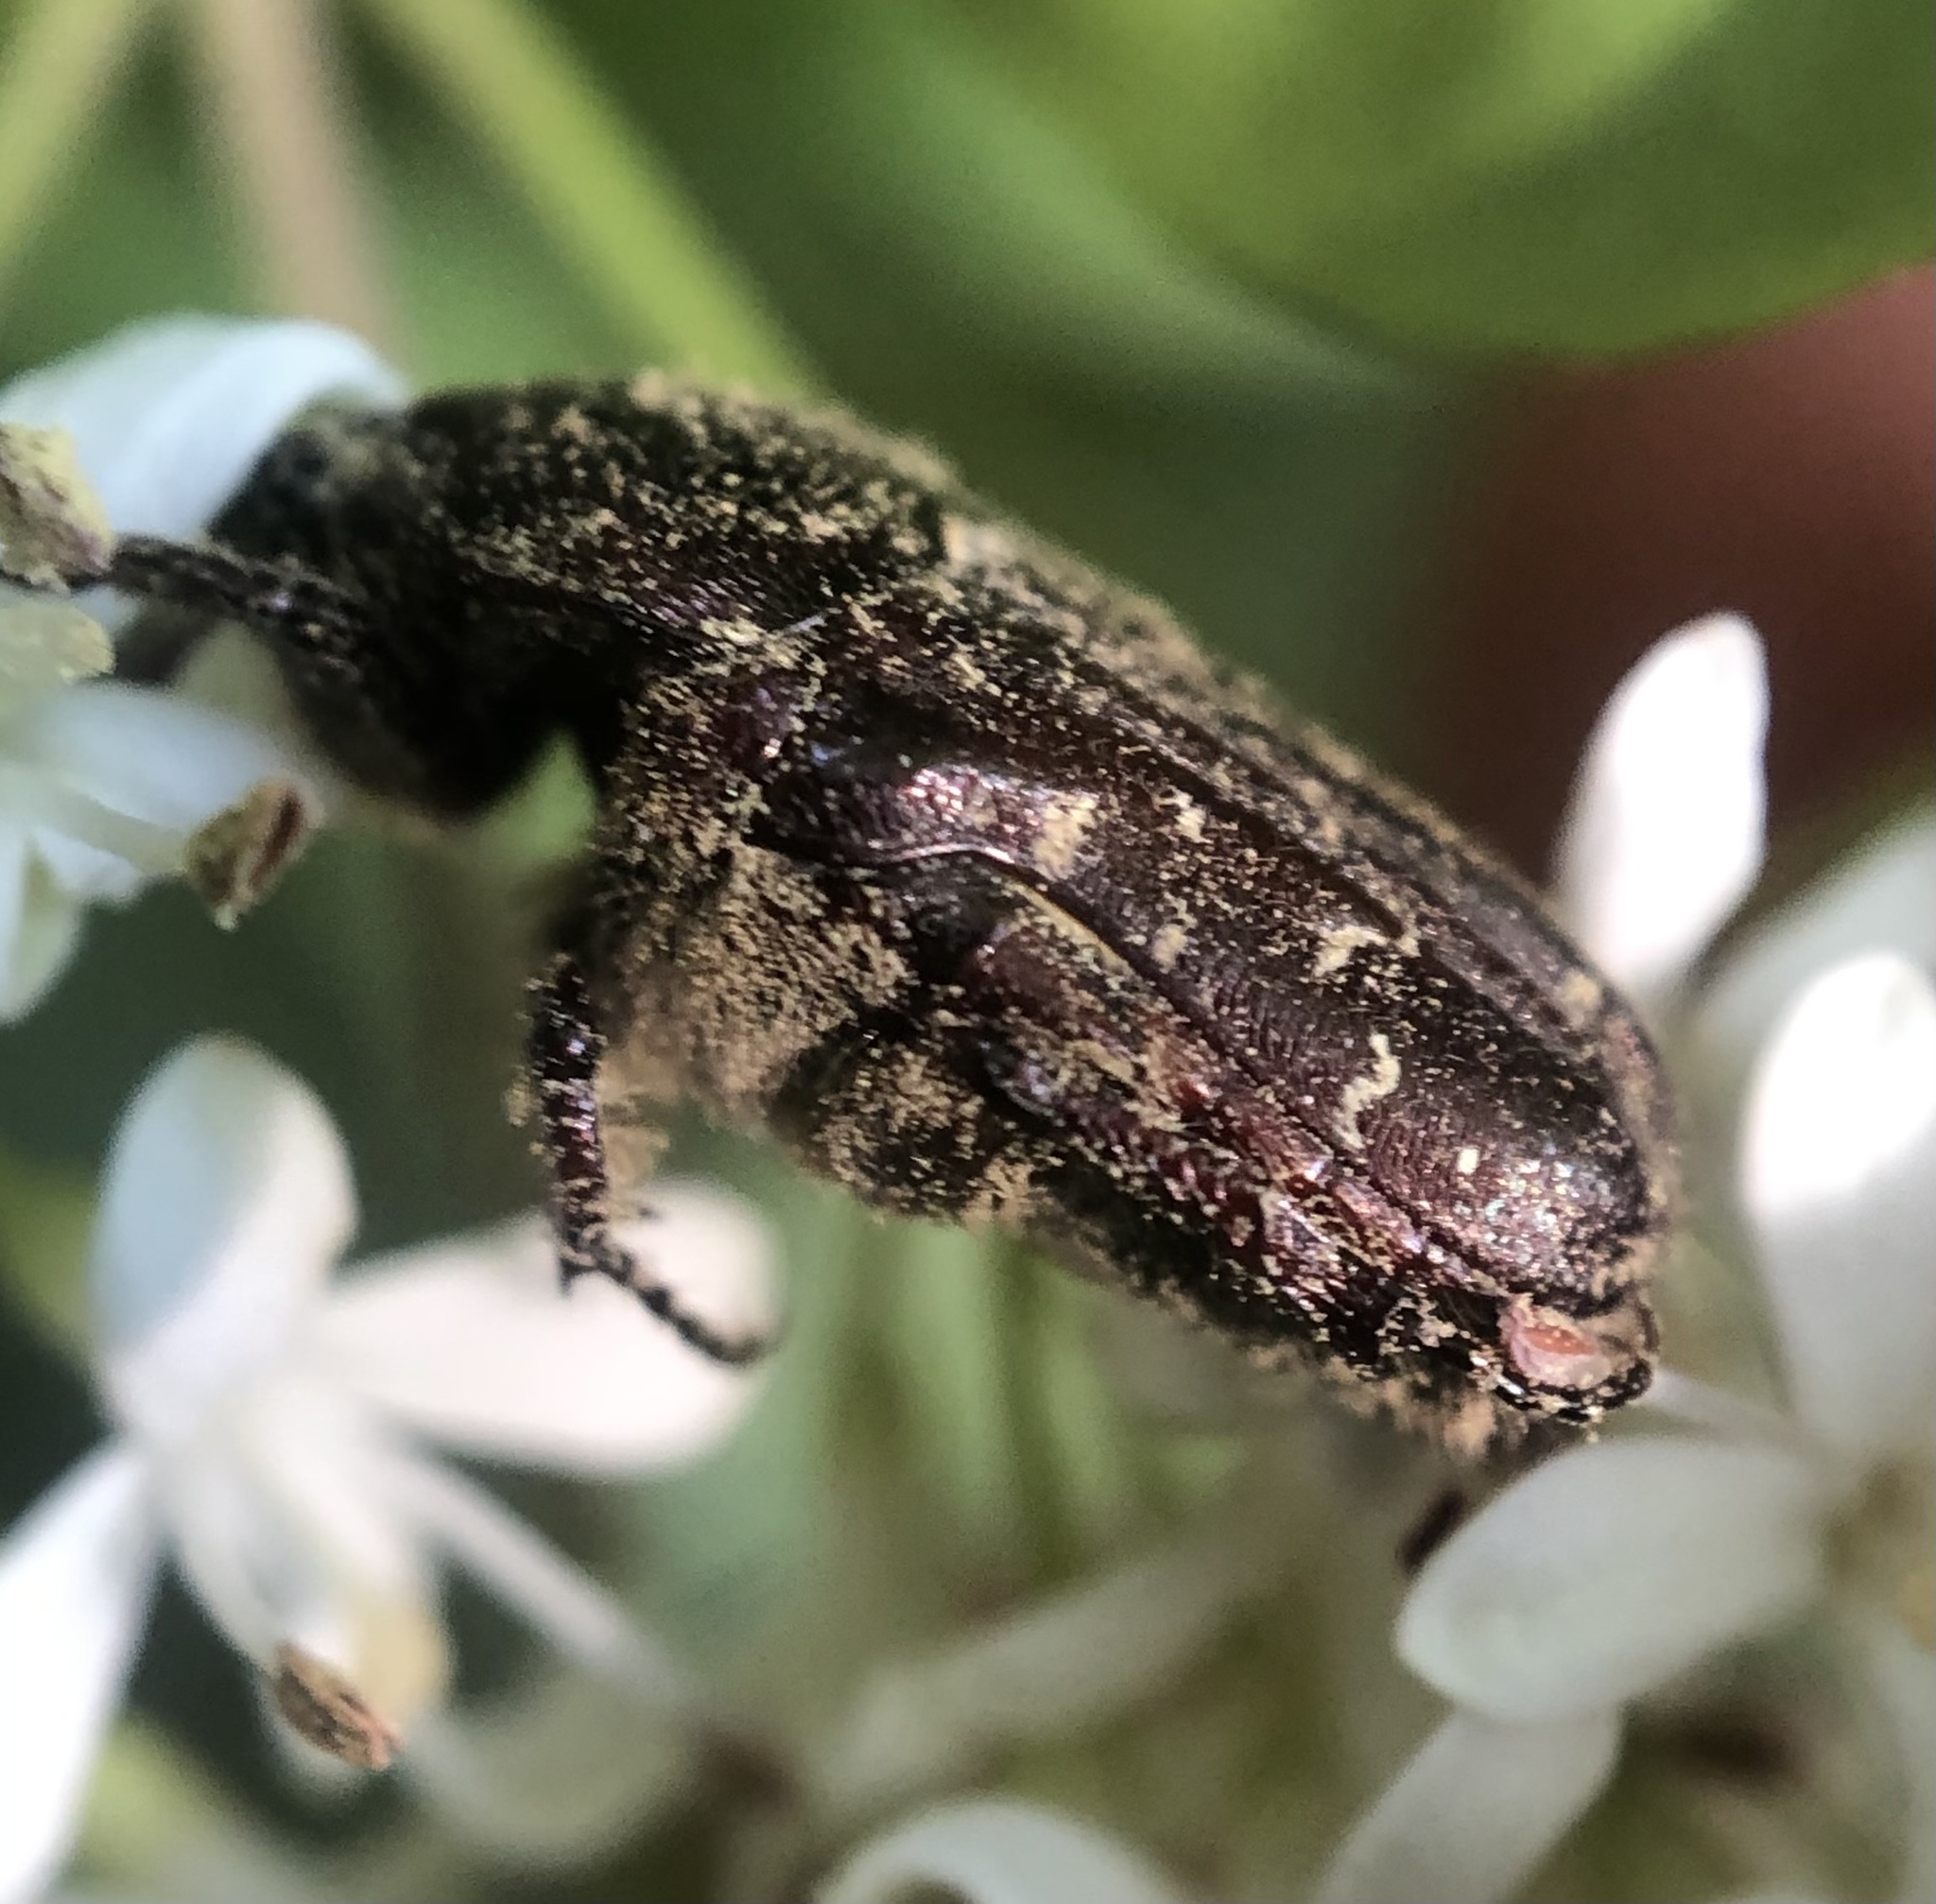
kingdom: Animalia
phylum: Arthropoda
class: Insecta
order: Coleoptera
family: Scarabaeidae
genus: Euphoria
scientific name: Euphoria sepulcralis
